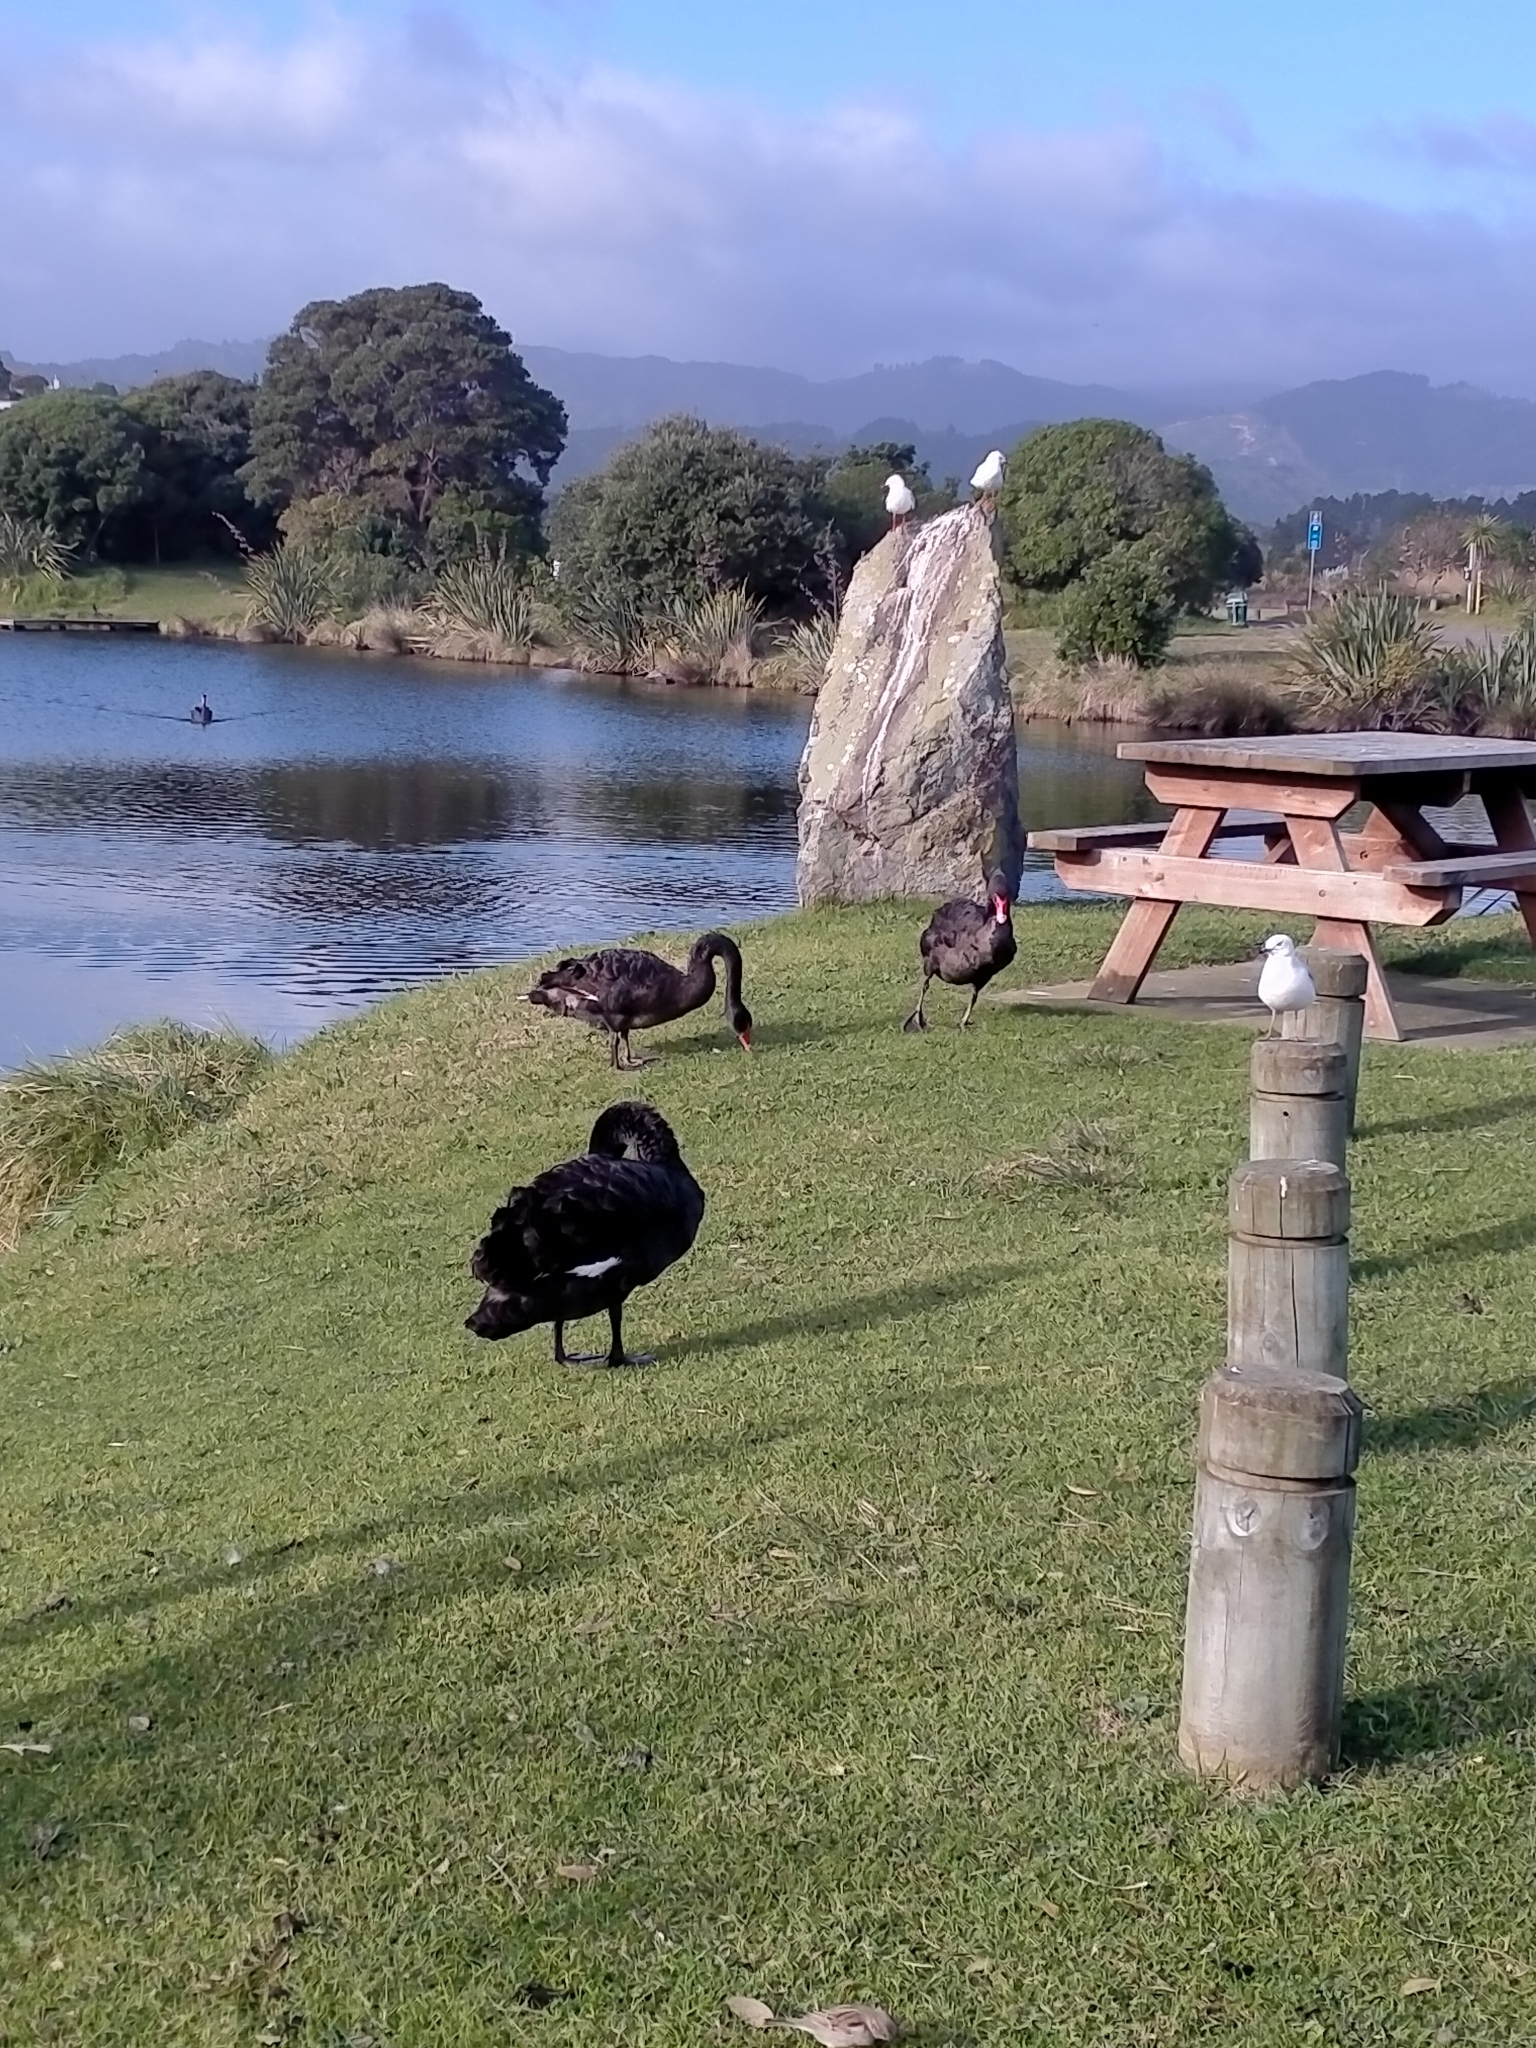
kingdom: Animalia
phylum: Chordata
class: Aves
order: Anseriformes
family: Anatidae
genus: Cygnus
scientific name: Cygnus atratus
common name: Black swan
